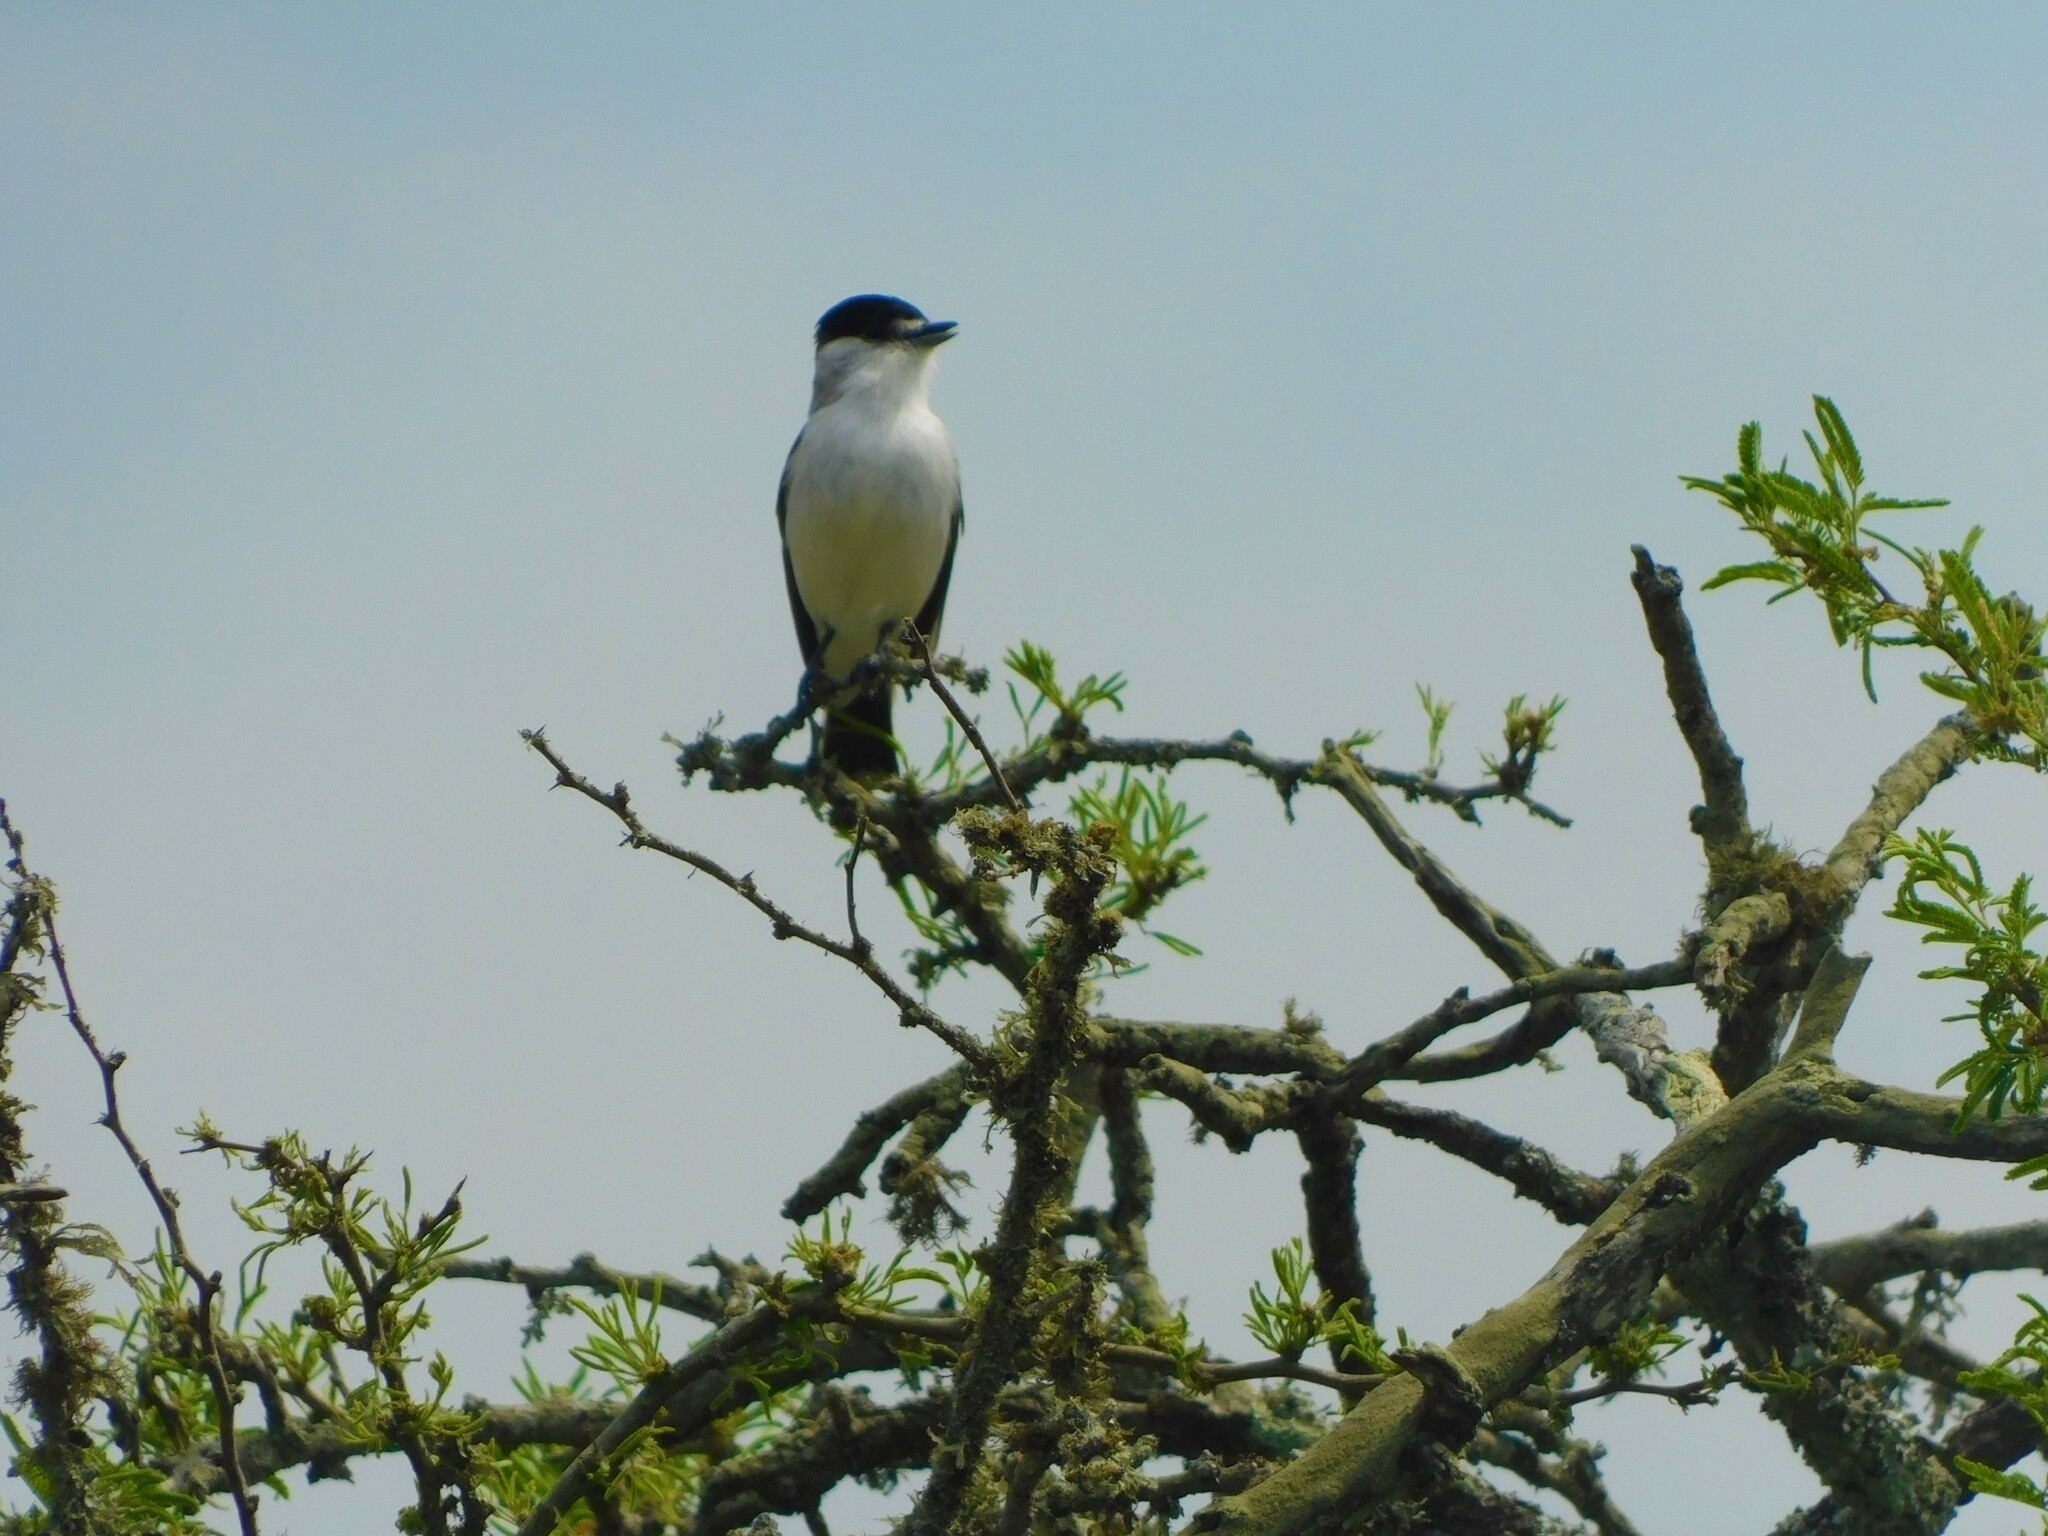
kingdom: Animalia
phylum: Chordata
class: Aves
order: Passeriformes
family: Cotingidae
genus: Xenopsaris
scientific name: Xenopsaris albinucha
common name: White-naped xenopsaris
